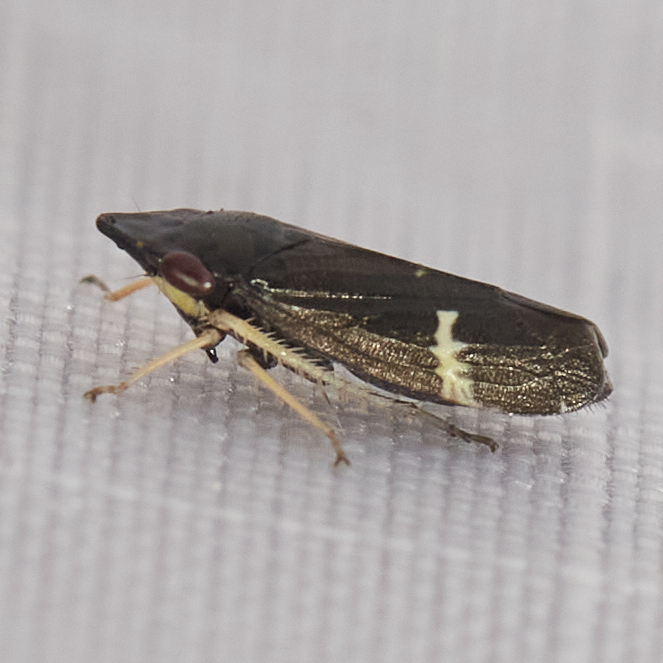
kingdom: Animalia
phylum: Arthropoda
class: Insecta
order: Hemiptera
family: Cicadellidae
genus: Cochlorhinus
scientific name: Cochlorhinus pluto
